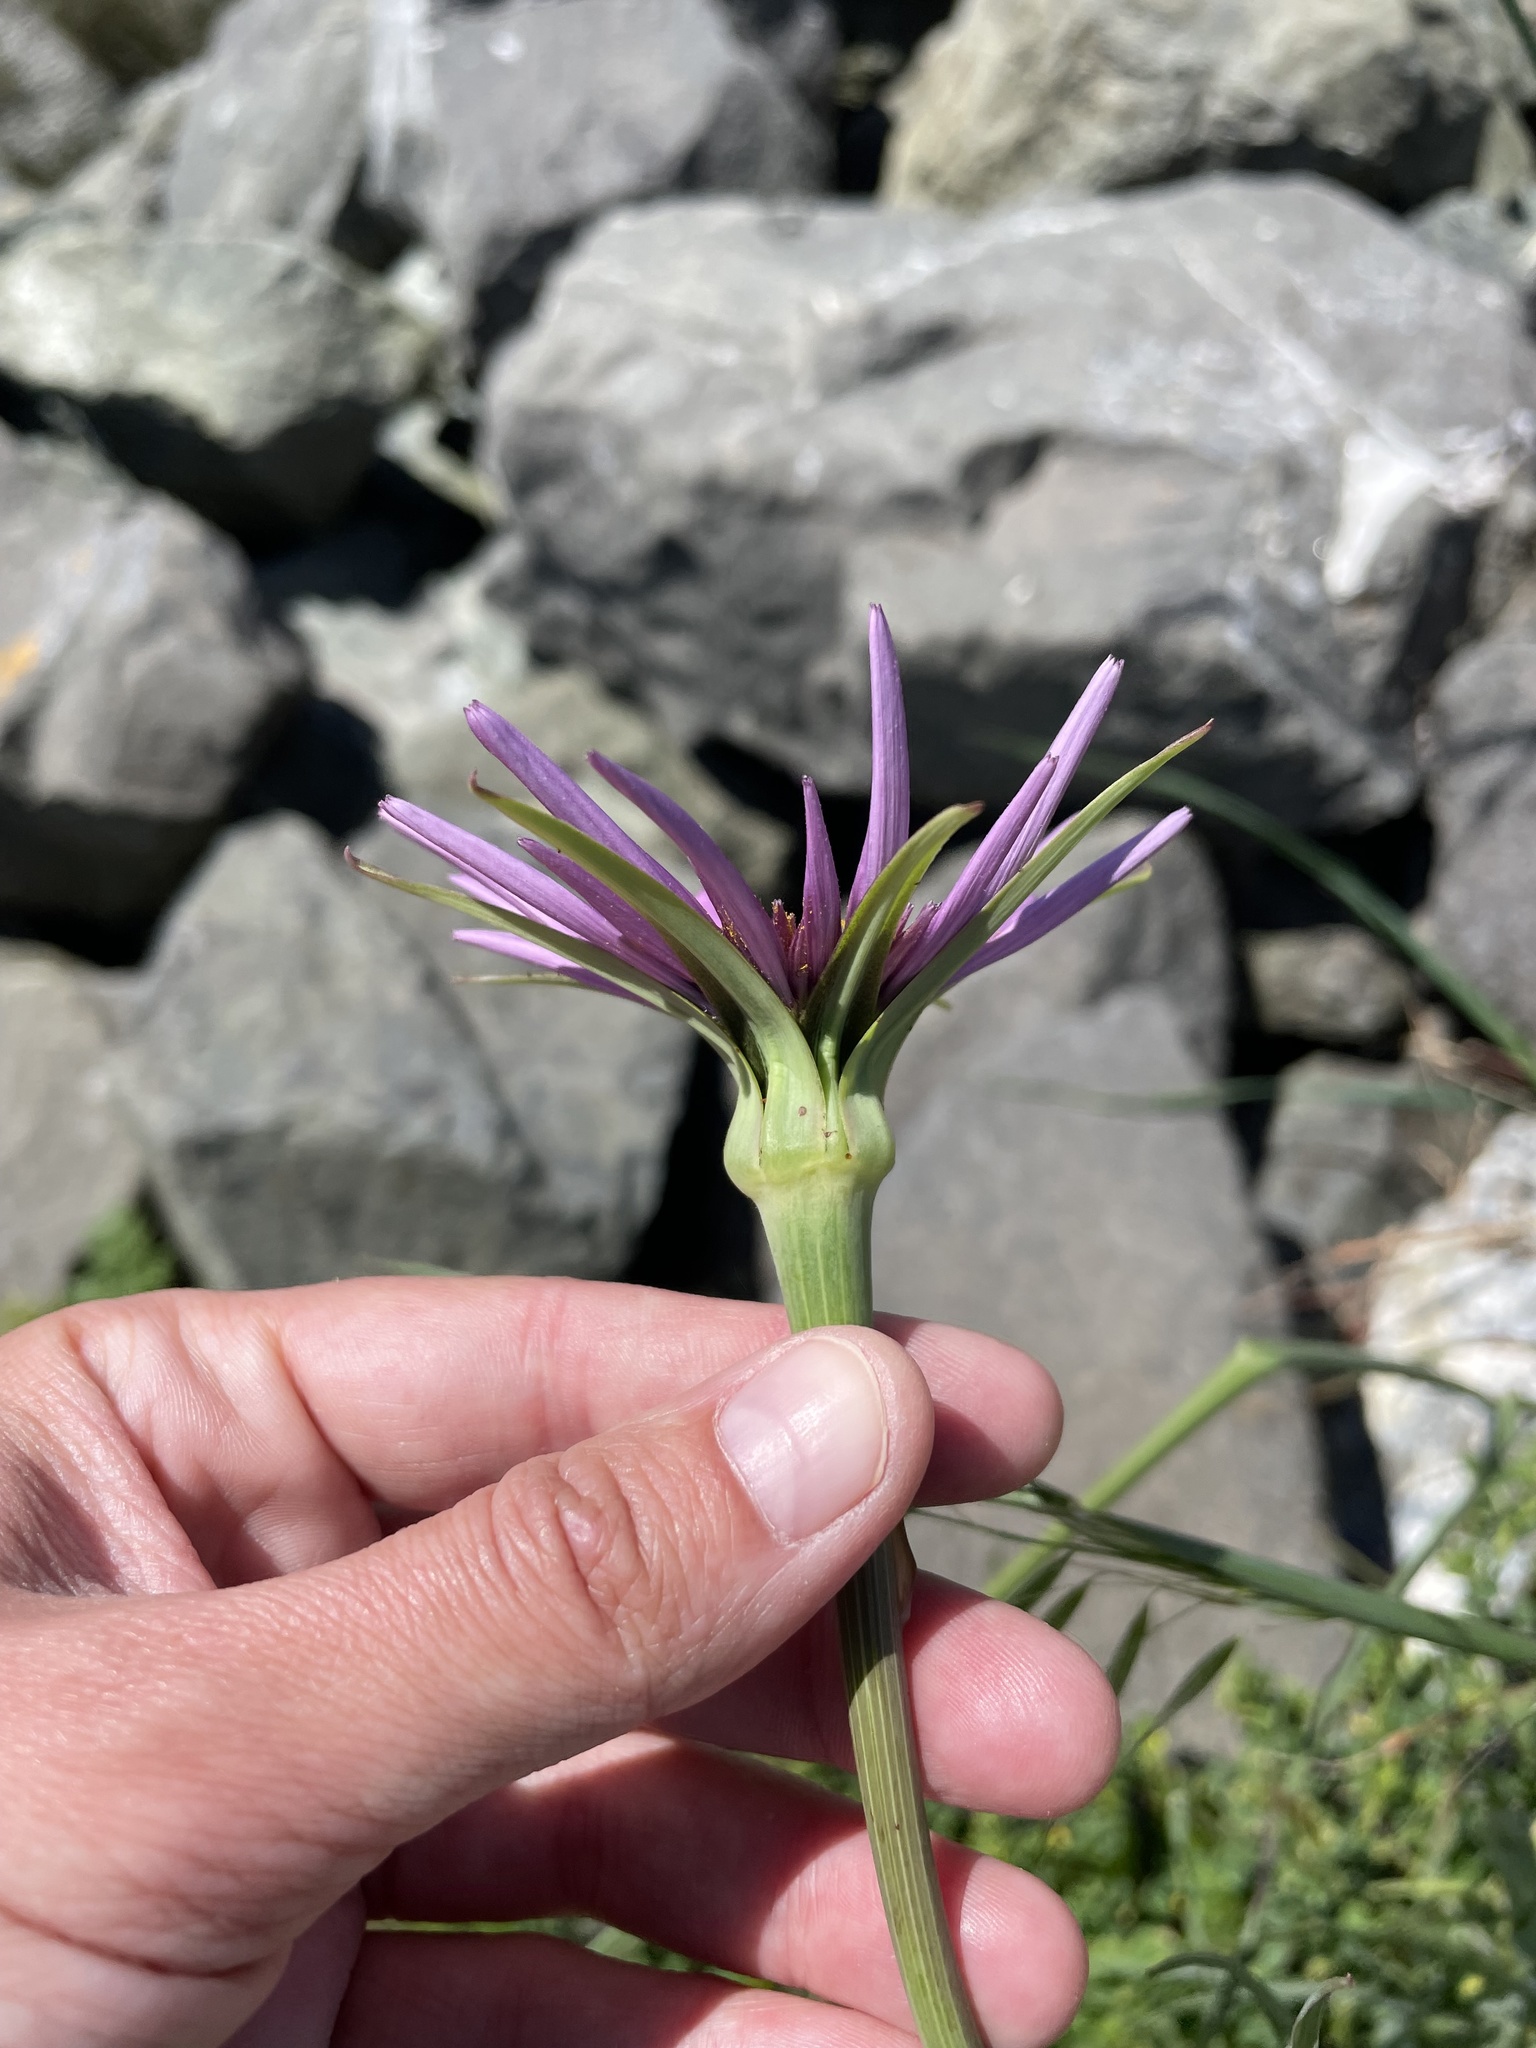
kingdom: Plantae
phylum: Tracheophyta
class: Magnoliopsida
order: Asterales
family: Asteraceae
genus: Tragopogon
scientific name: Tragopogon porrifolius
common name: Salsify
